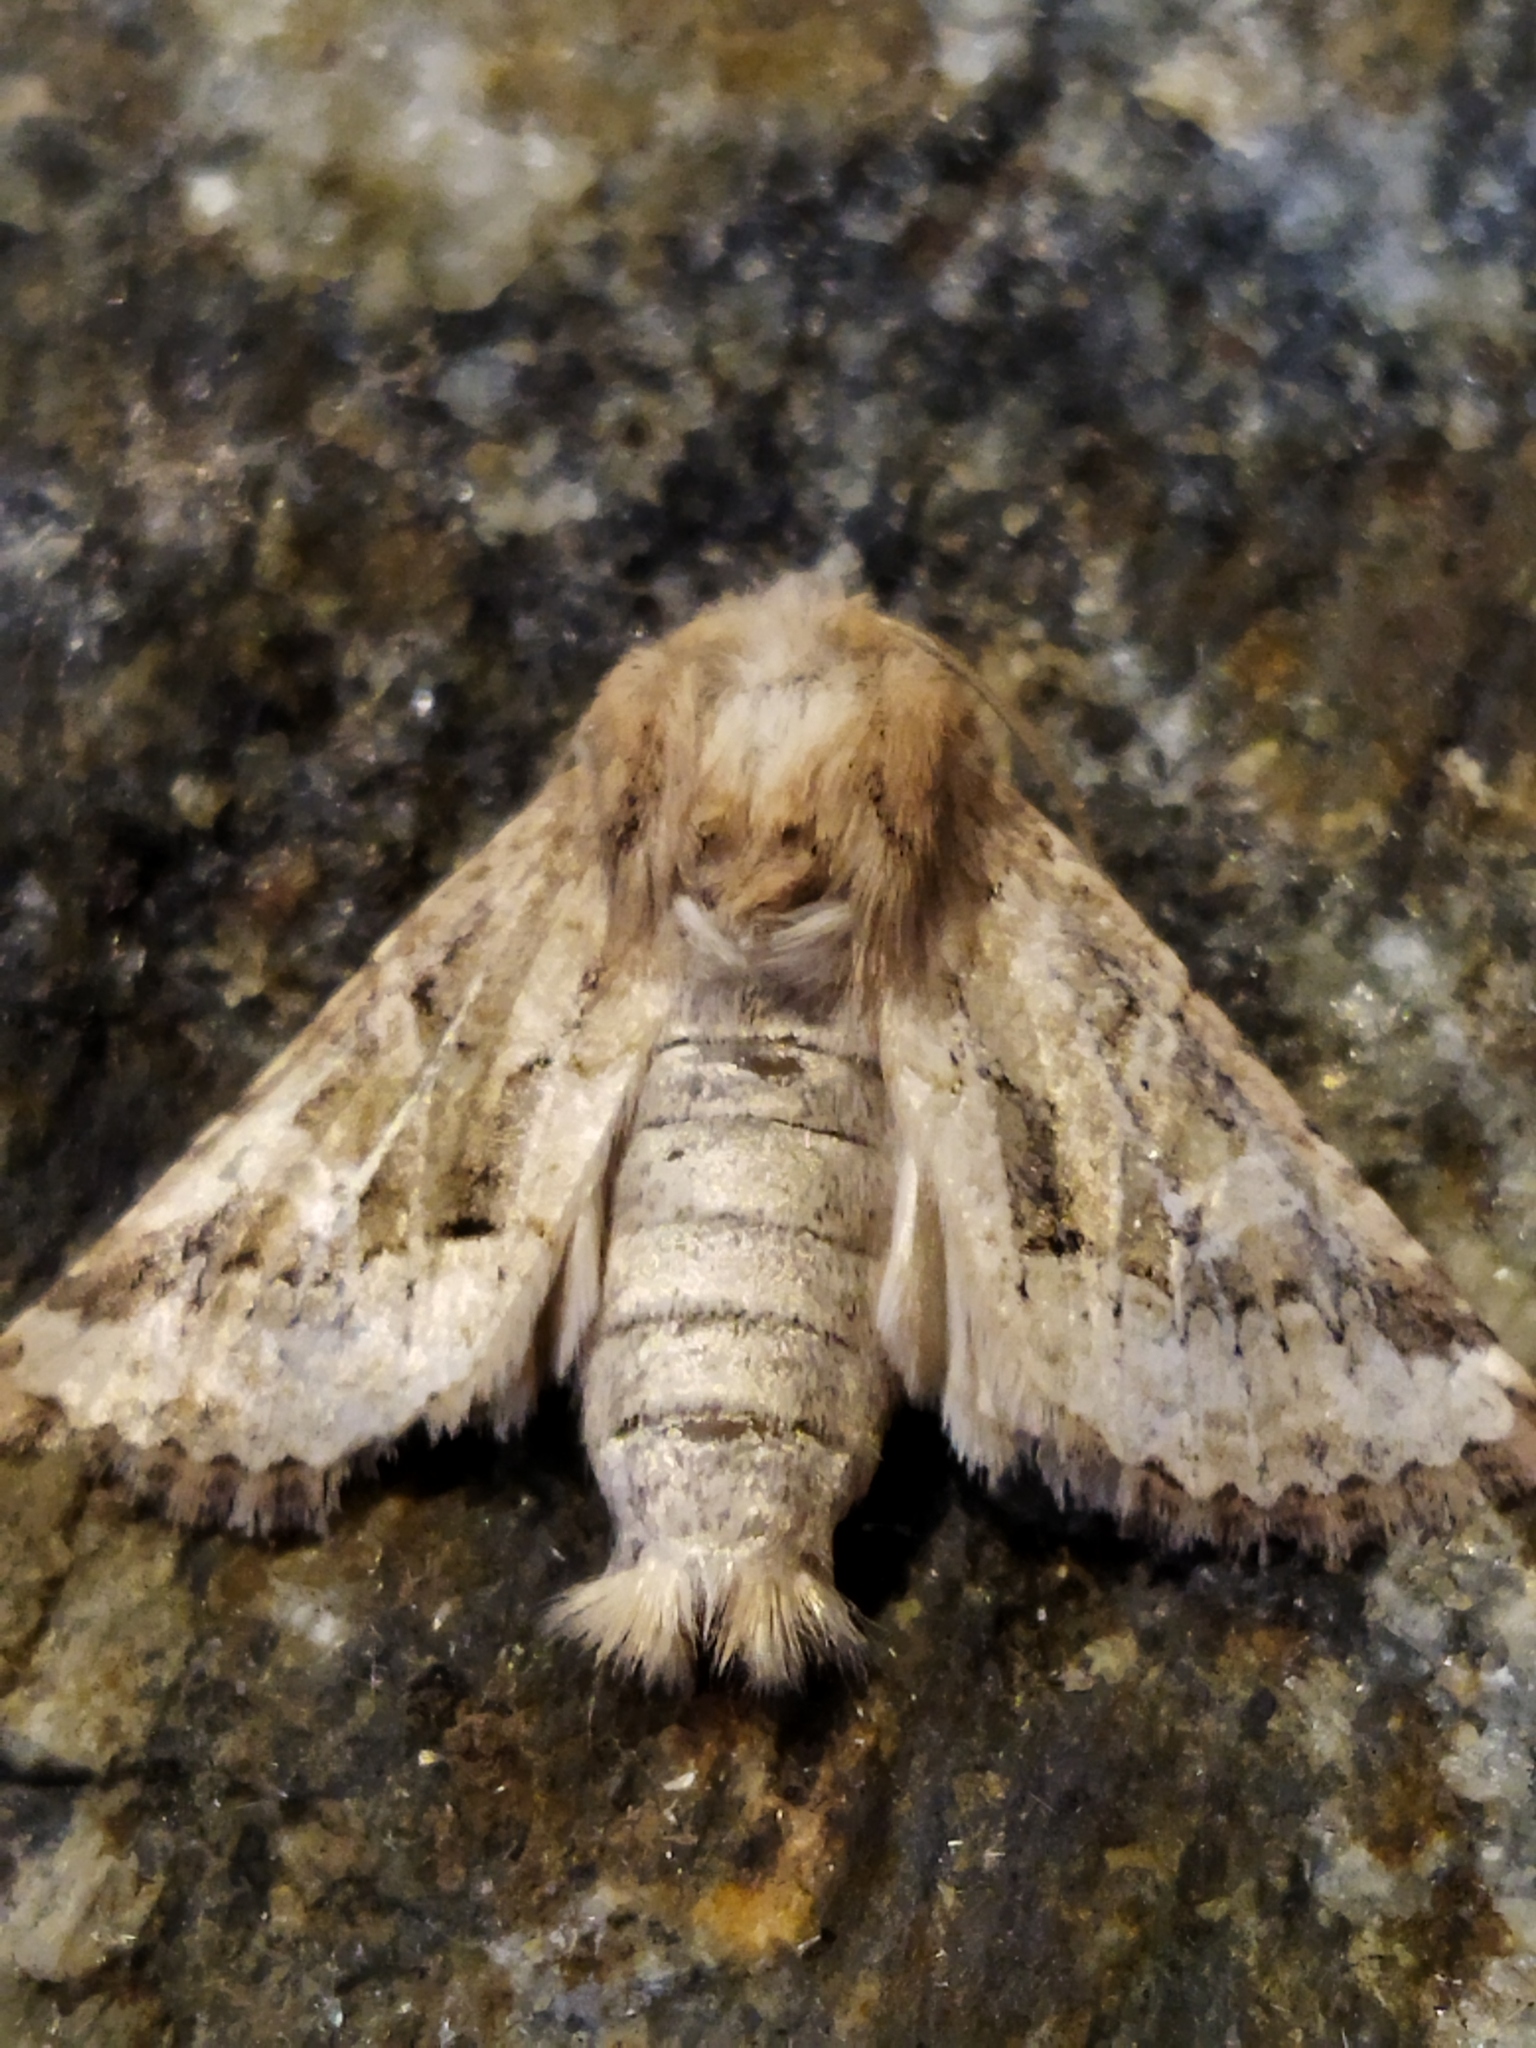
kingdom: Animalia
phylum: Arthropoda
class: Insecta
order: Lepidoptera
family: Noctuidae
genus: Luperina
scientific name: Luperina dumerilii
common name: Dumeril's rustic
